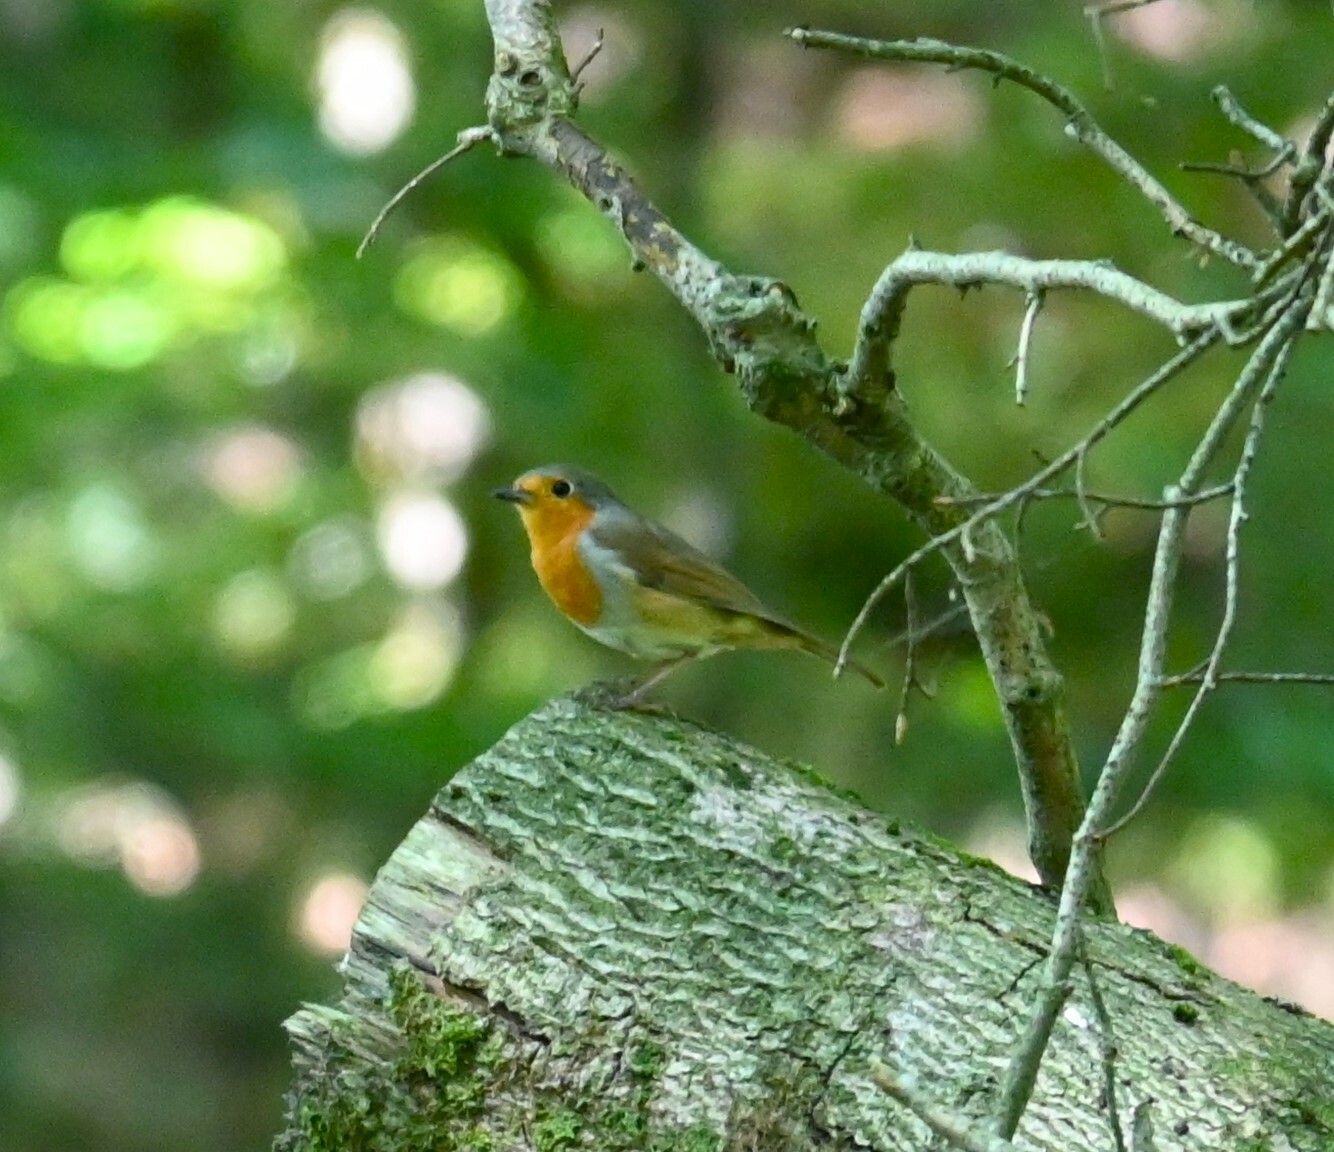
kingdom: Animalia
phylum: Chordata
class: Aves
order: Passeriformes
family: Muscicapidae
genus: Erithacus
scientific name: Erithacus rubecula
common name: European robin
